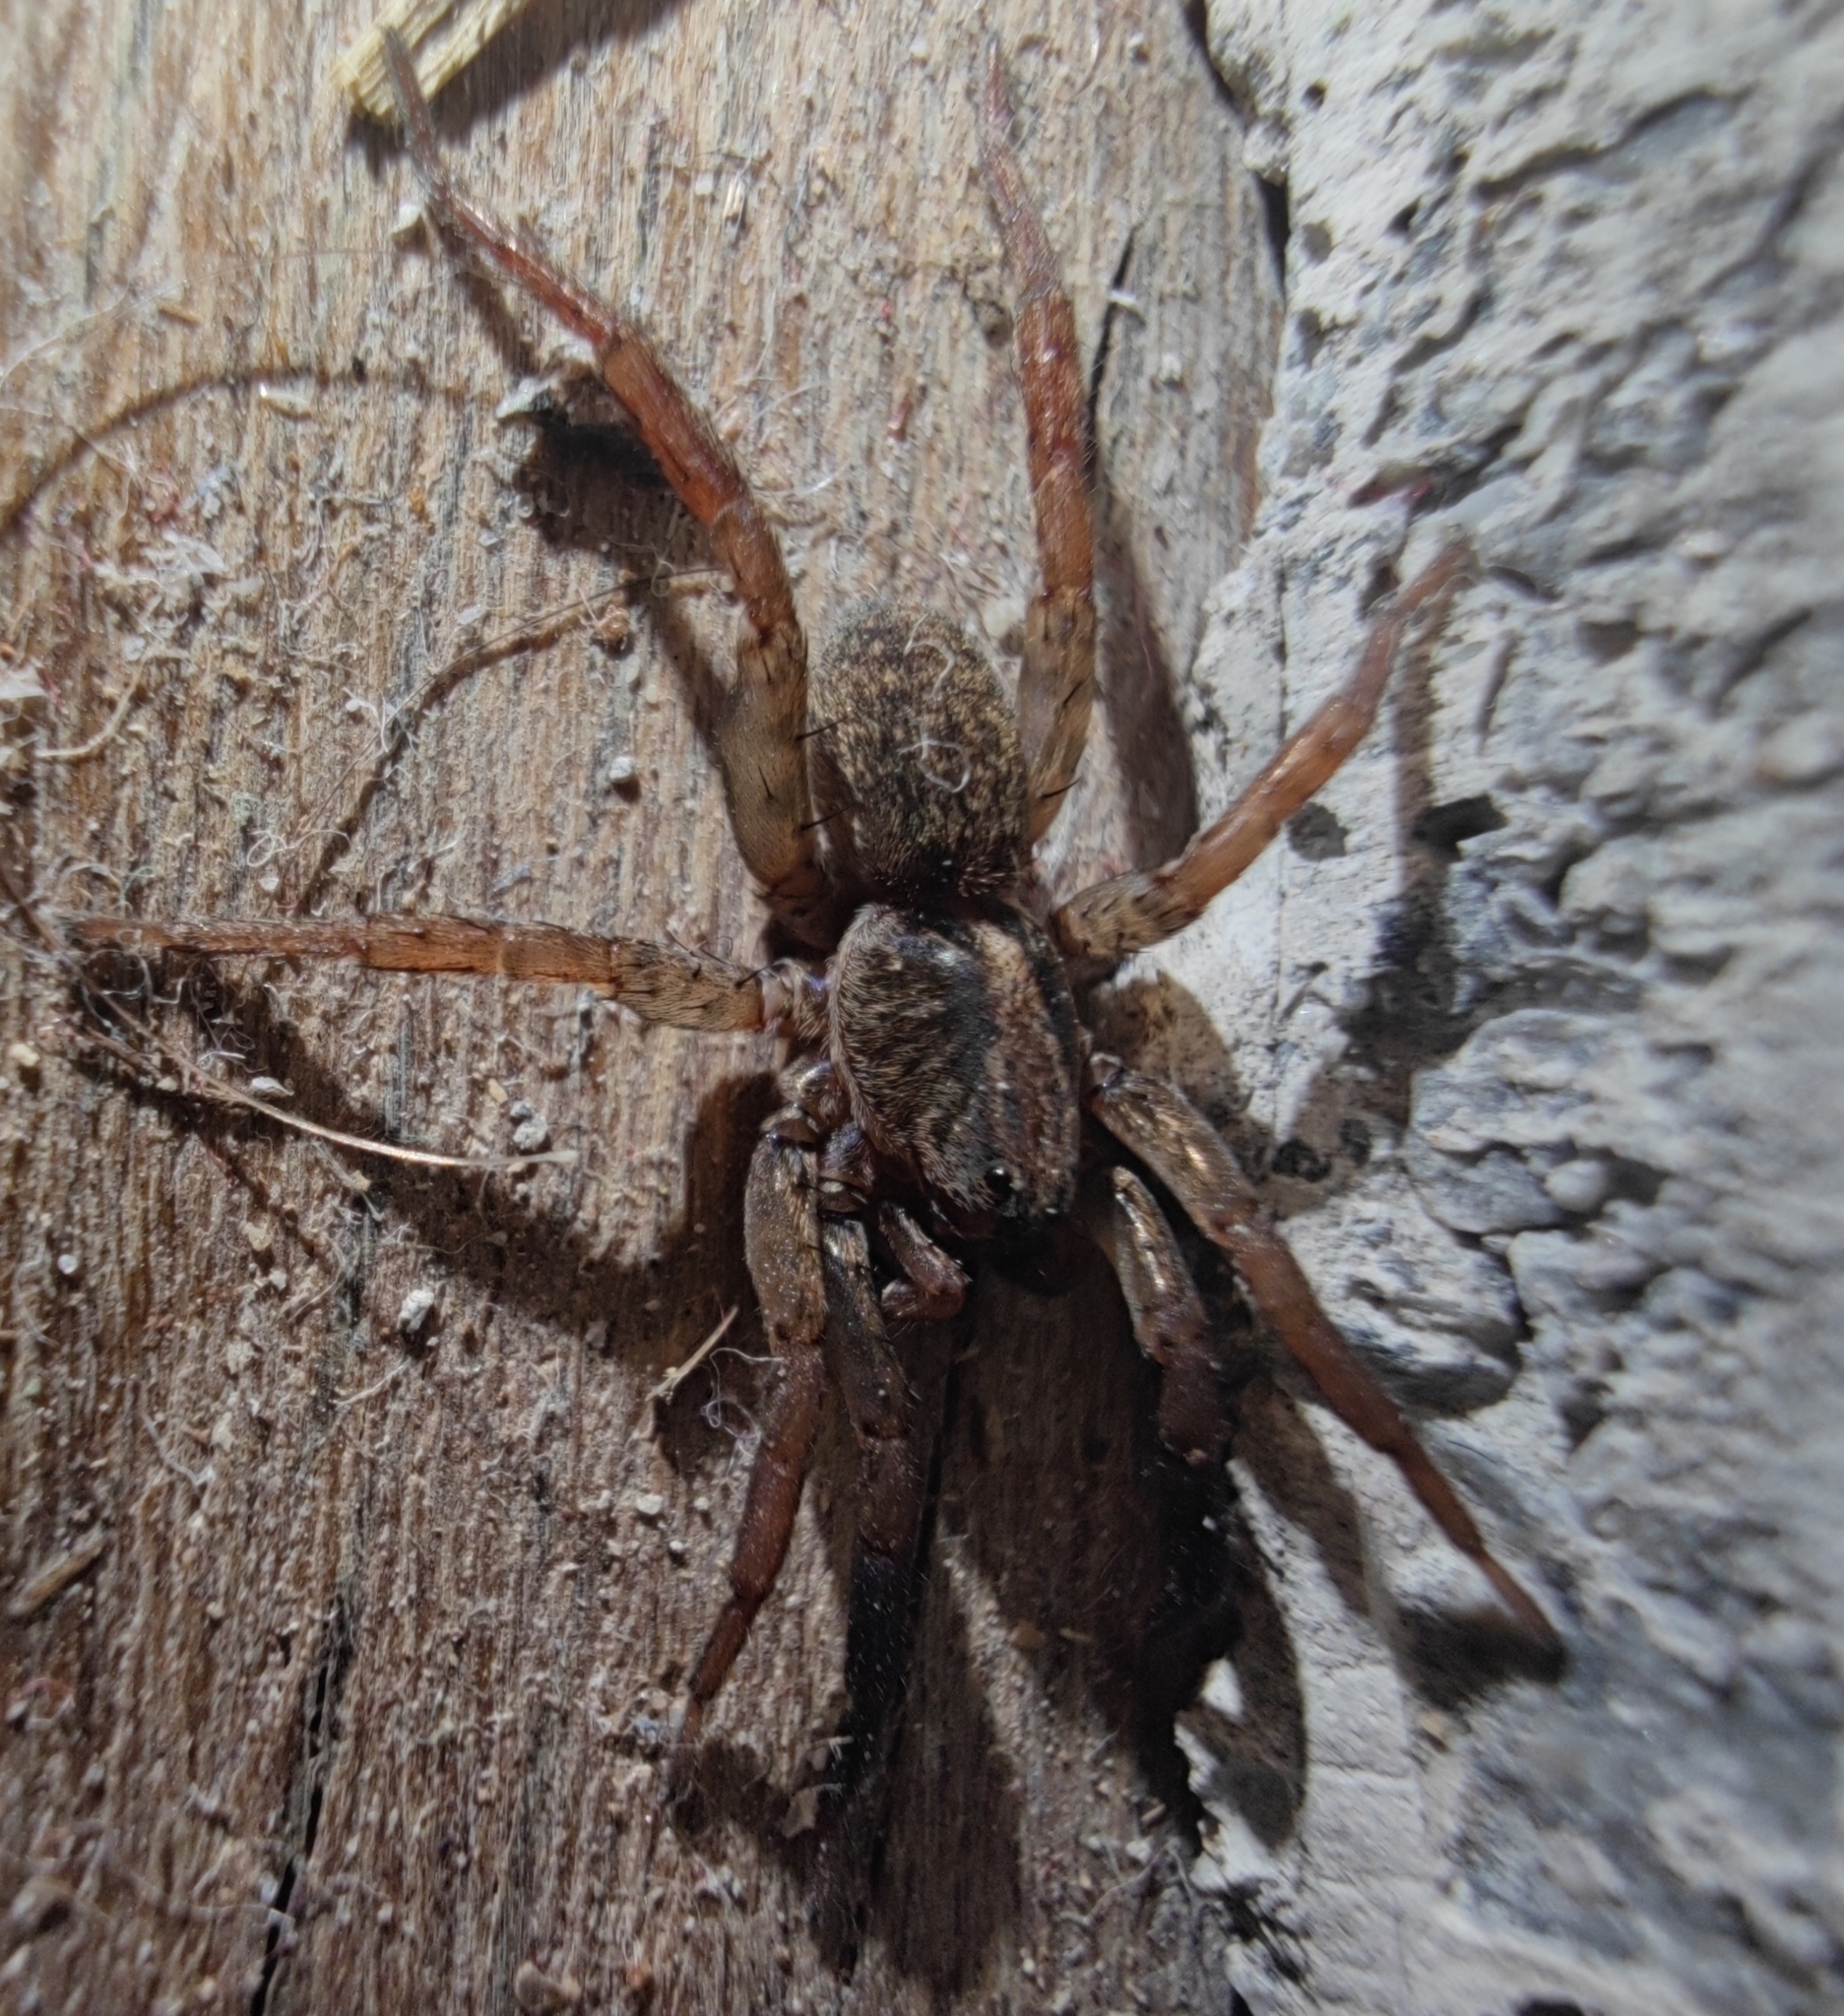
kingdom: Animalia
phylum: Arthropoda
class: Arachnida
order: Araneae
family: Lycosidae
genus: Trochosa
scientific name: Trochosa
